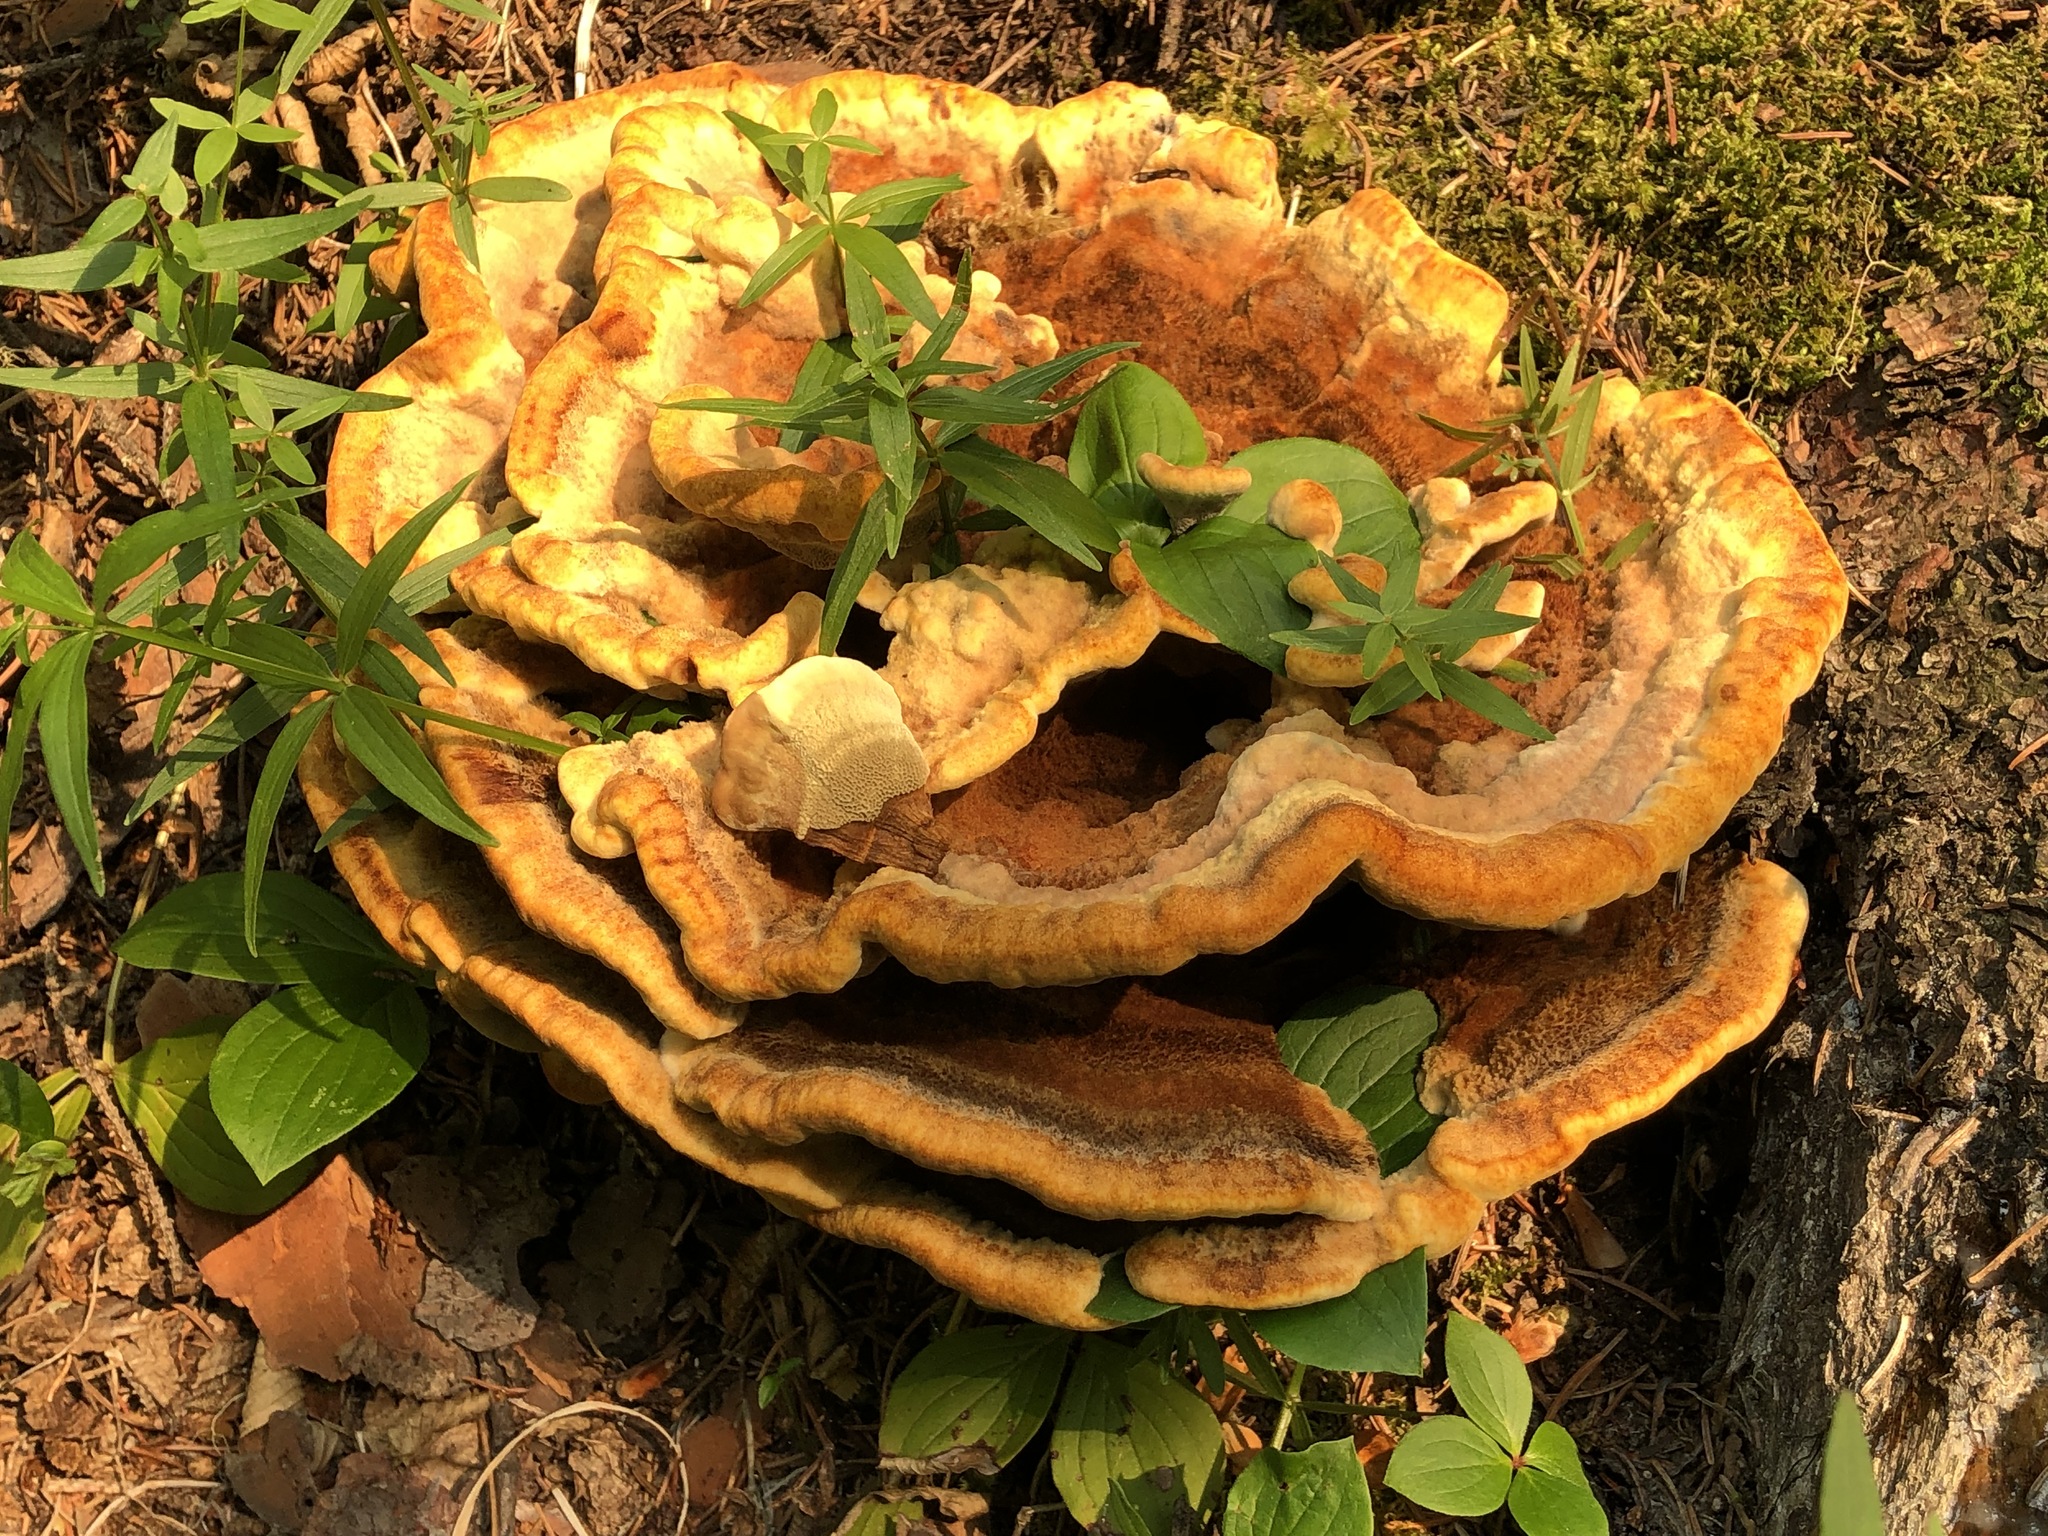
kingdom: Fungi
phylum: Basidiomycota
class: Agaricomycetes
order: Polyporales
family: Laetiporaceae
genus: Phaeolus
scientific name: Phaeolus schweinitzii
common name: Dyer's mazegill
